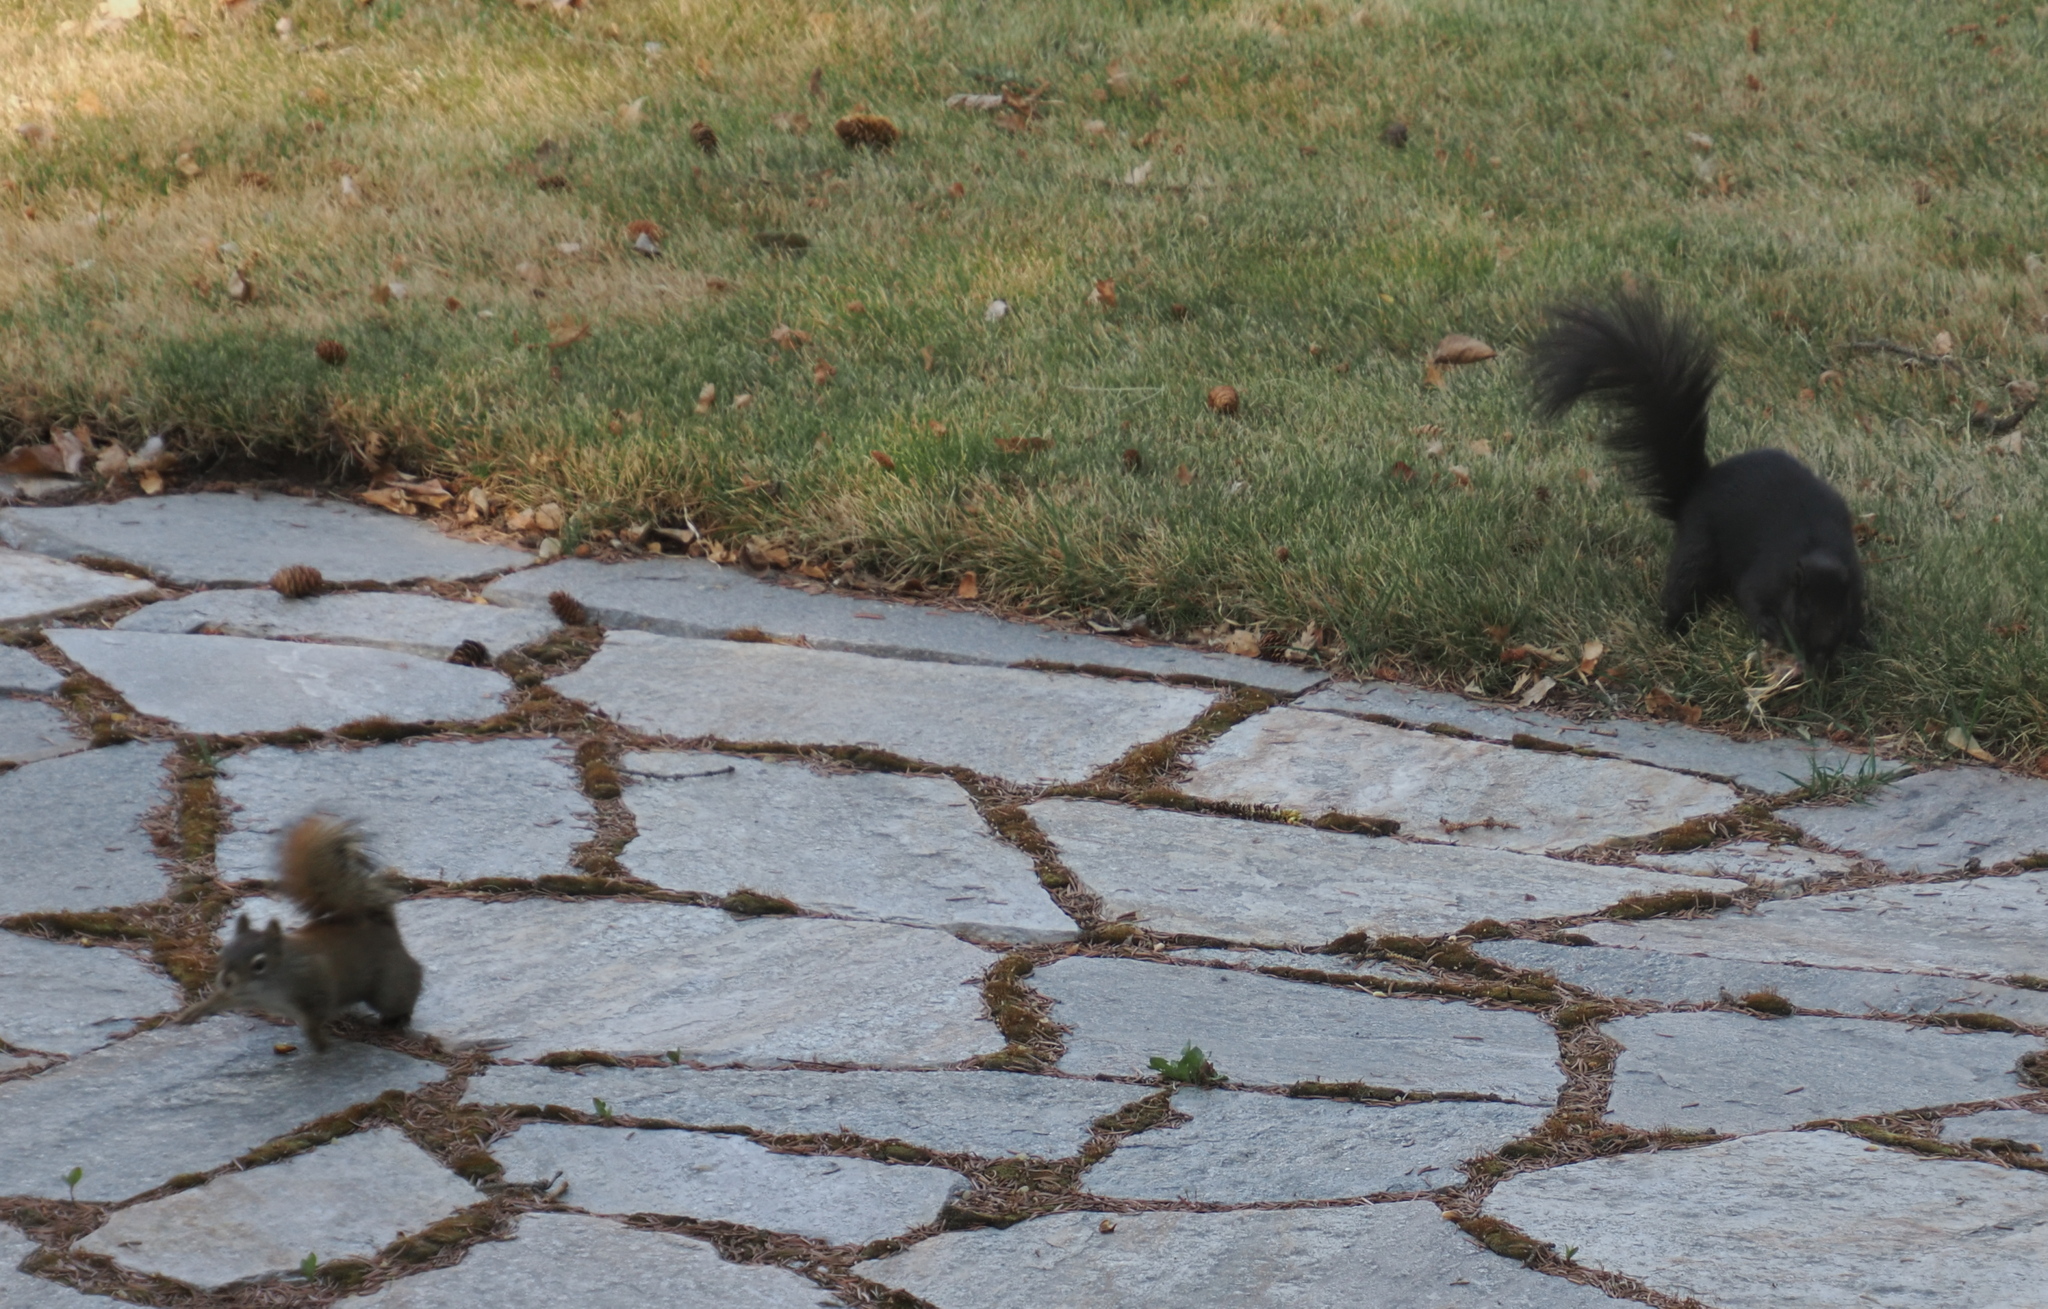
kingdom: Animalia
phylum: Chordata
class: Mammalia
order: Rodentia
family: Sciuridae
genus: Tamiasciurus
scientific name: Tamiasciurus hudsonicus
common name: Red squirrel
